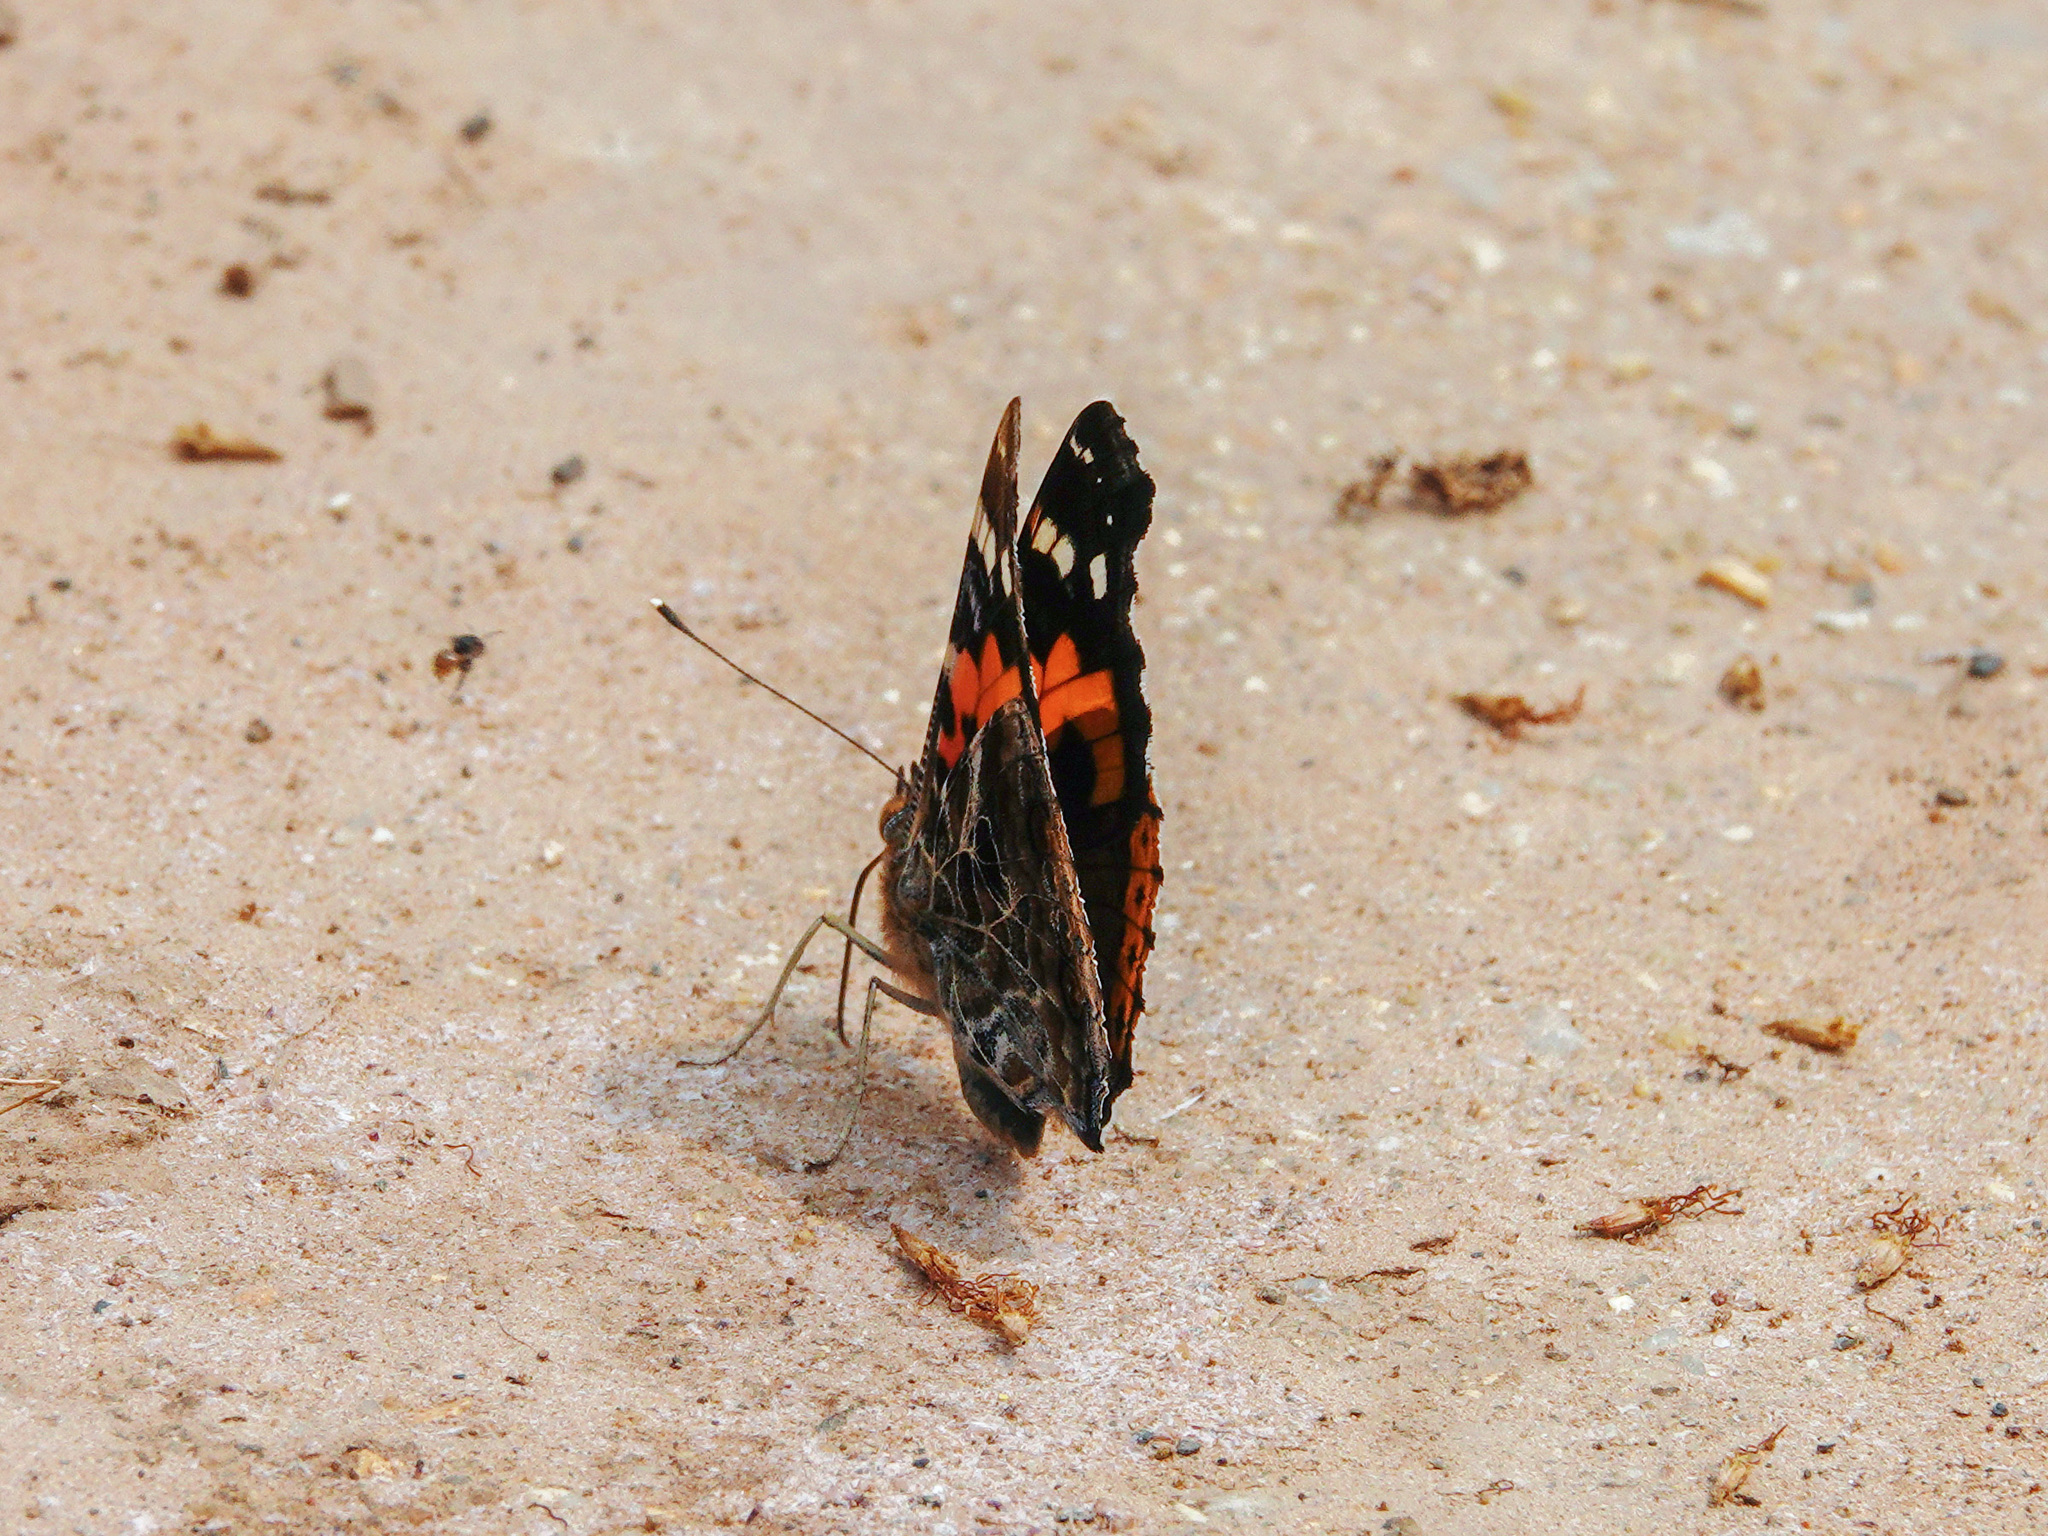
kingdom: Animalia
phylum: Arthropoda
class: Insecta
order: Lepidoptera
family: Nymphalidae
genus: Vanessa
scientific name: Vanessa indica
